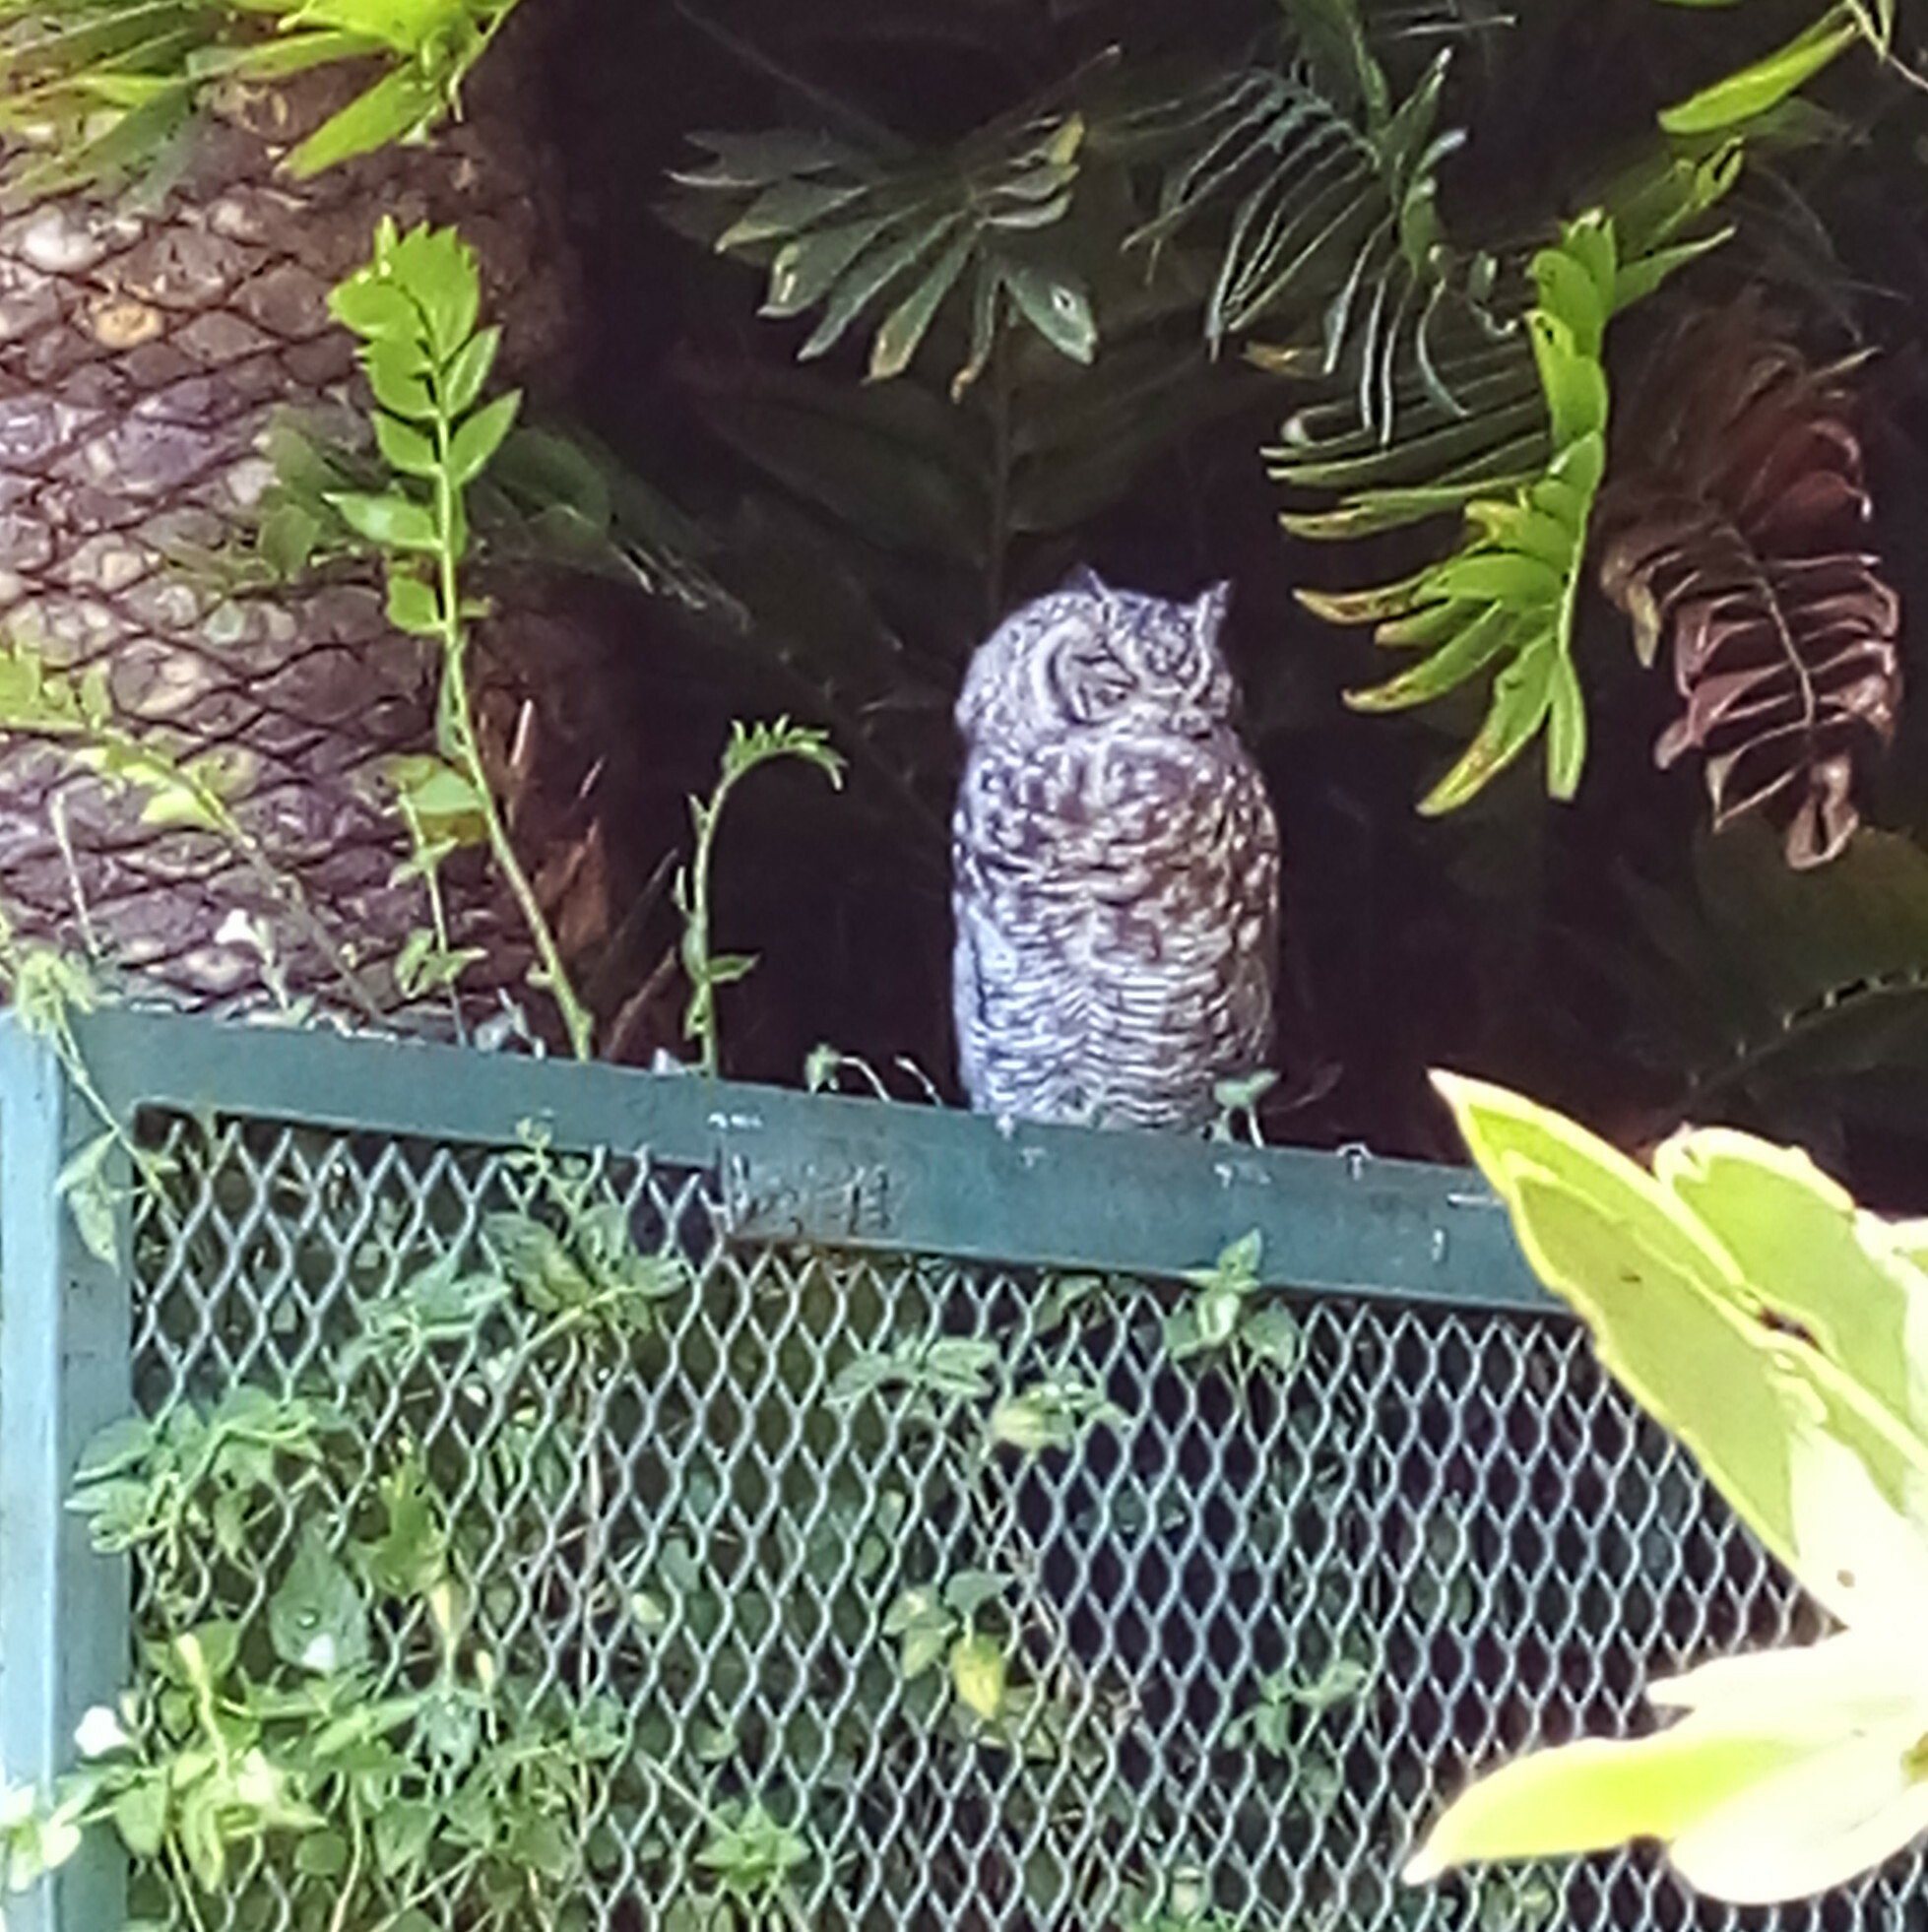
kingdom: Animalia
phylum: Chordata
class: Aves
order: Strigiformes
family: Strigidae
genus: Bubo
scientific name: Bubo africanus
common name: Spotted eagle-owl
